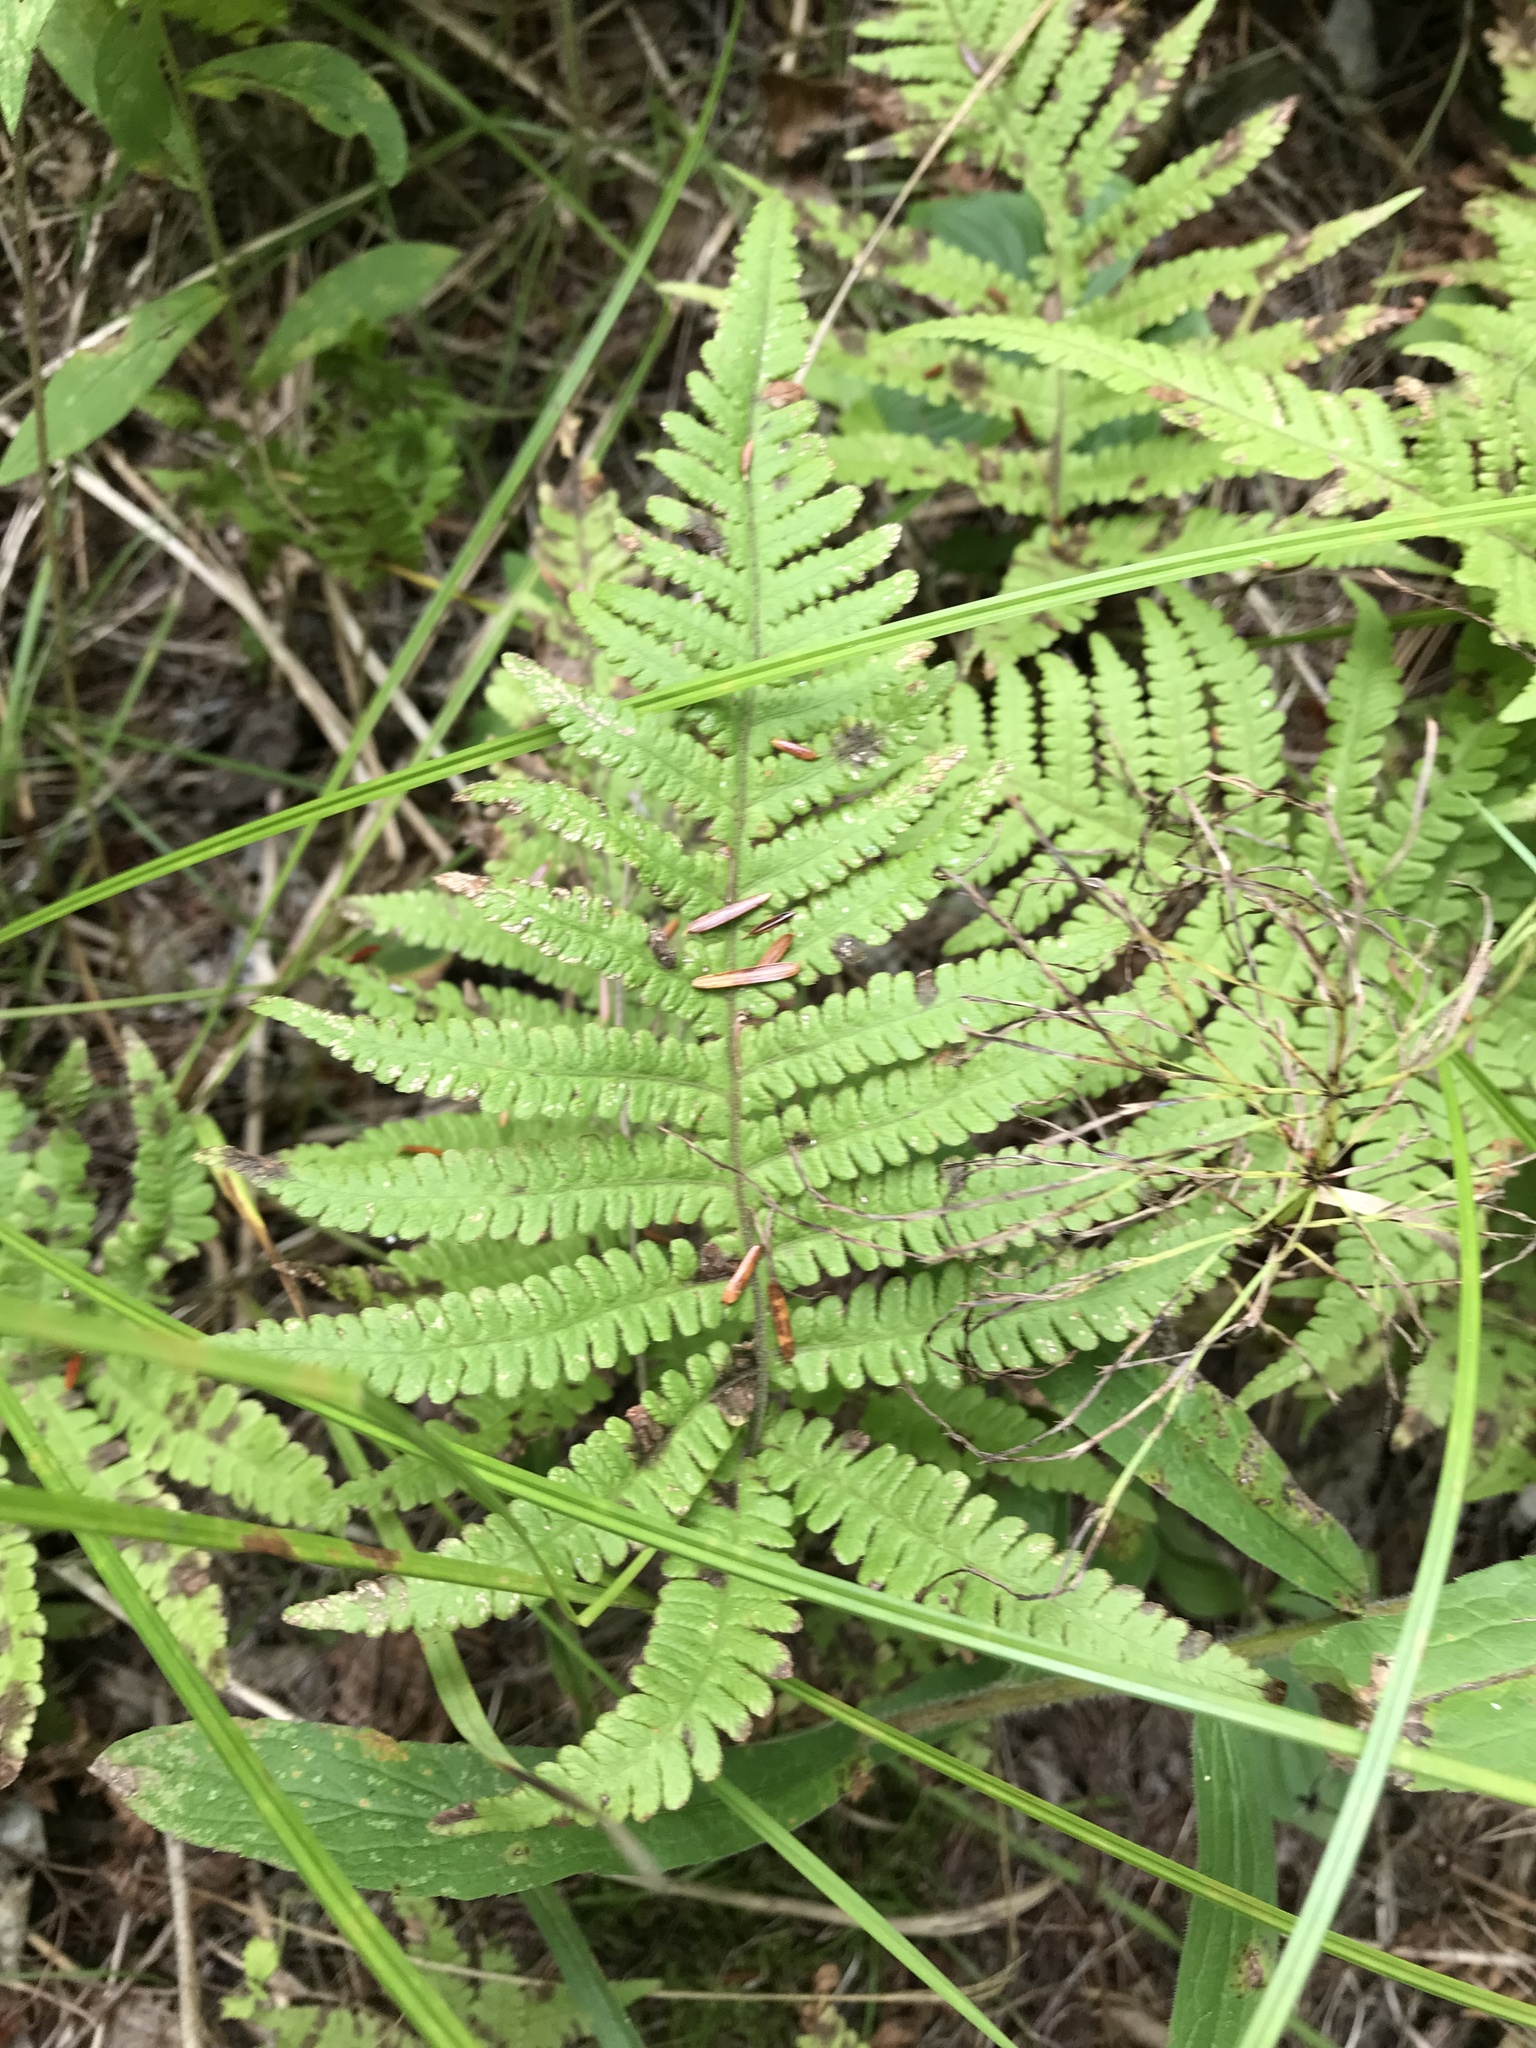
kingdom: Plantae
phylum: Tracheophyta
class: Polypodiopsida
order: Polypodiales
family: Thelypteridaceae
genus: Phegopteris
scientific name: Phegopteris connectilis
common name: Beech fern
